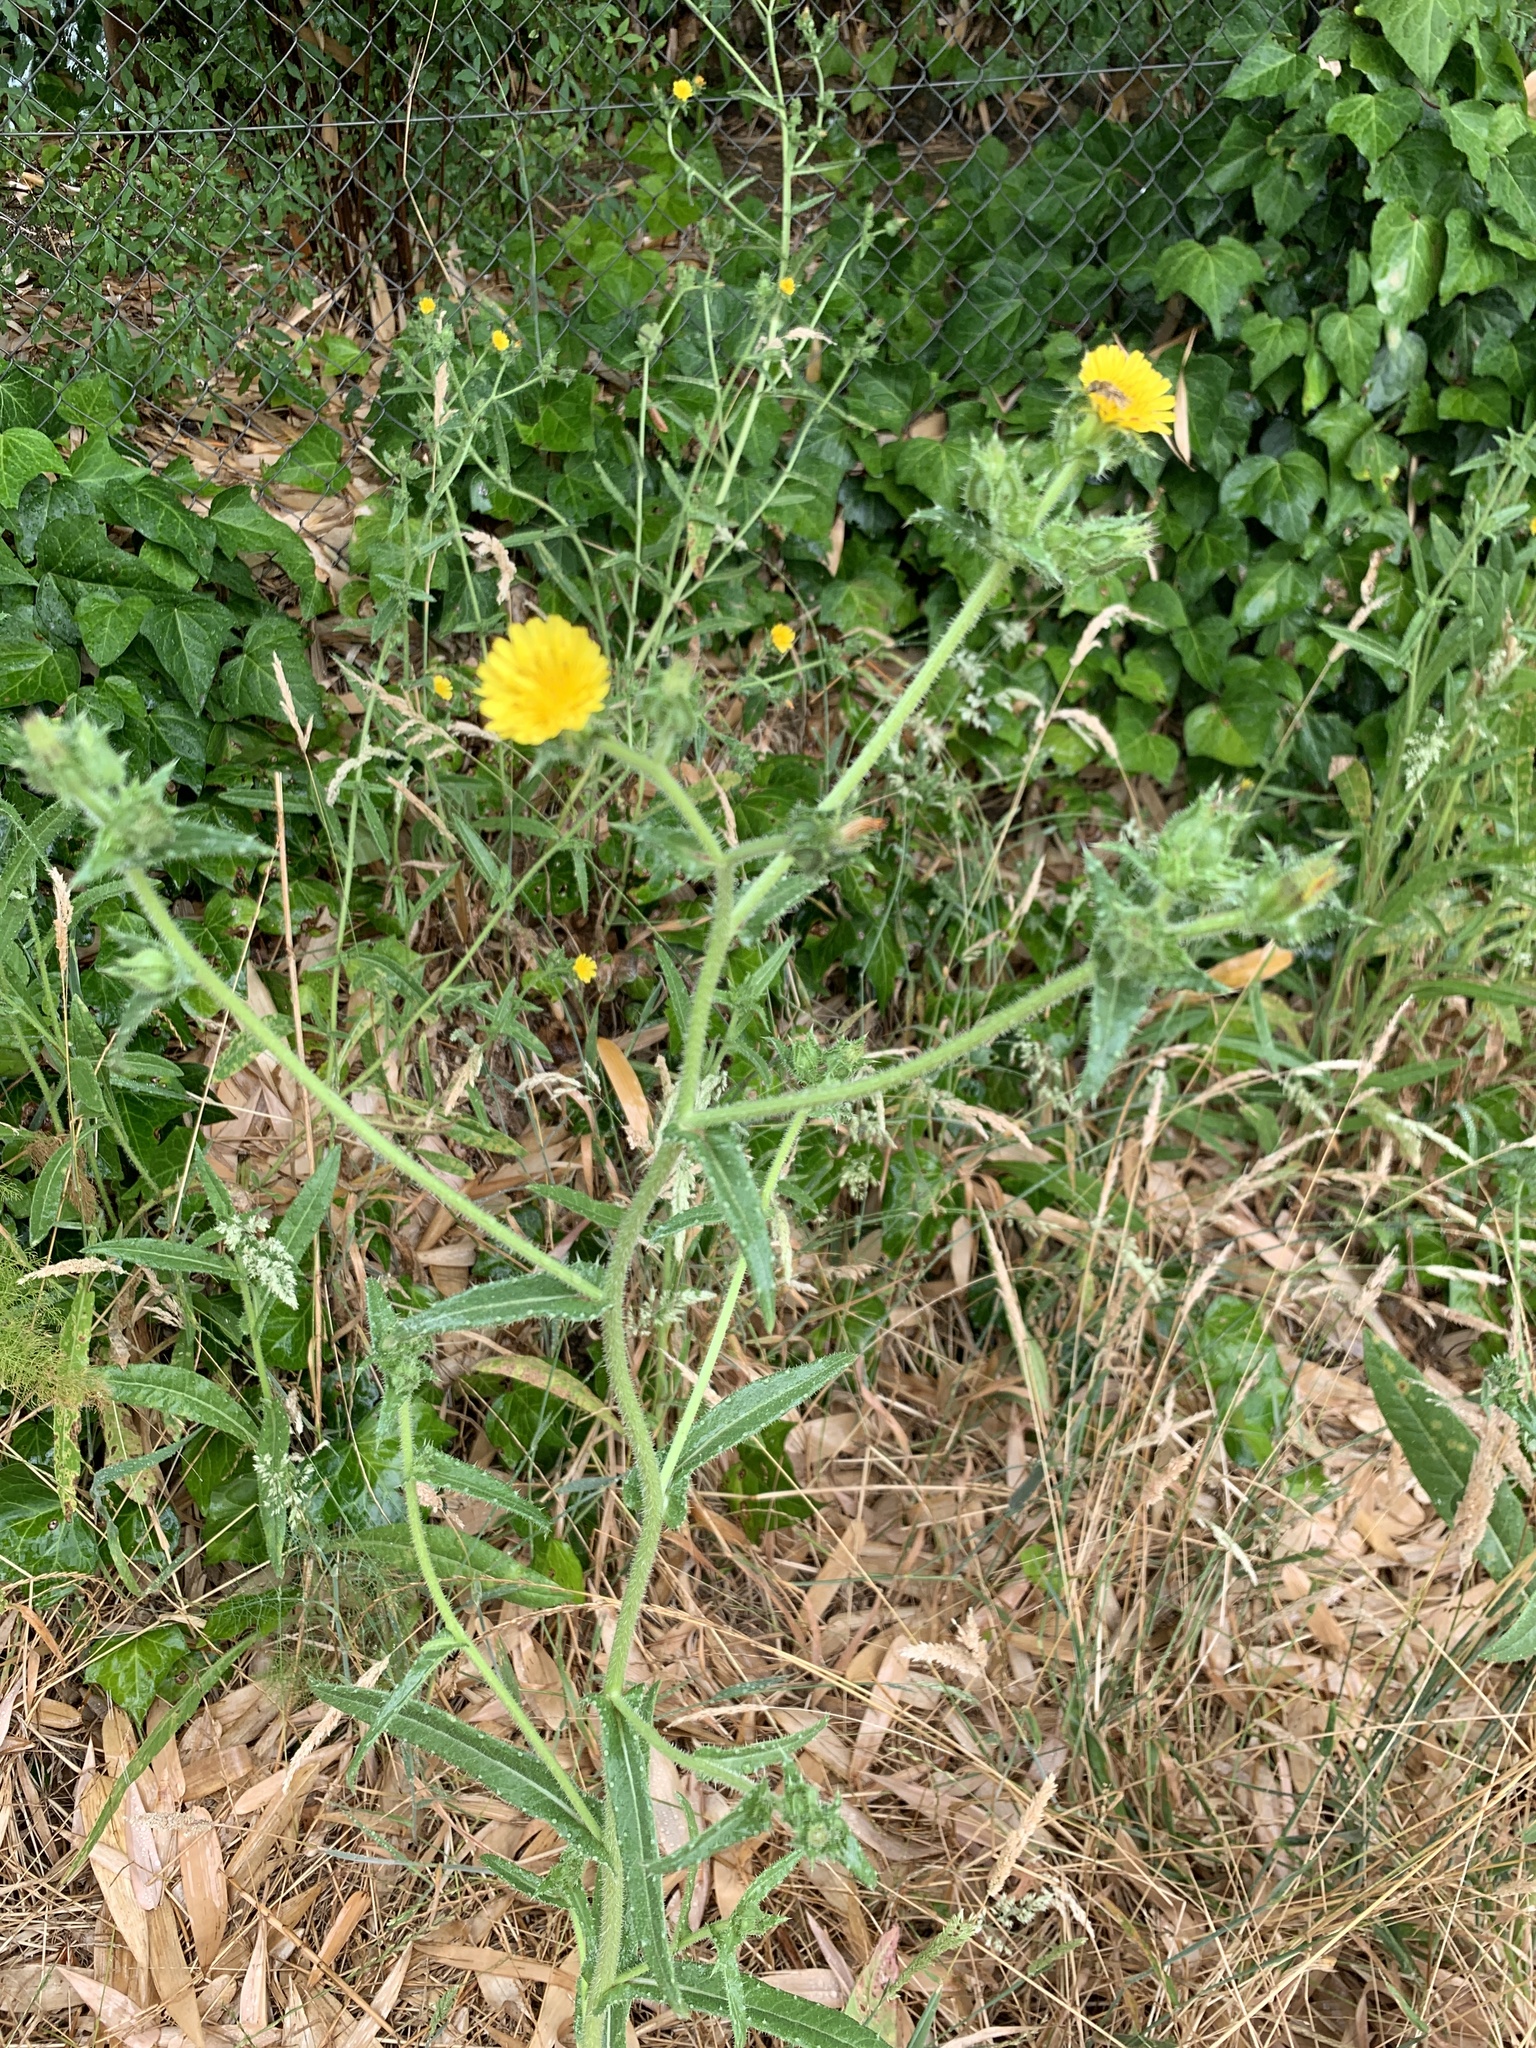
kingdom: Plantae
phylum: Tracheophyta
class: Magnoliopsida
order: Asterales
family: Asteraceae
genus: Helminthotheca
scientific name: Helminthotheca echioides
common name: Ox-tongue
